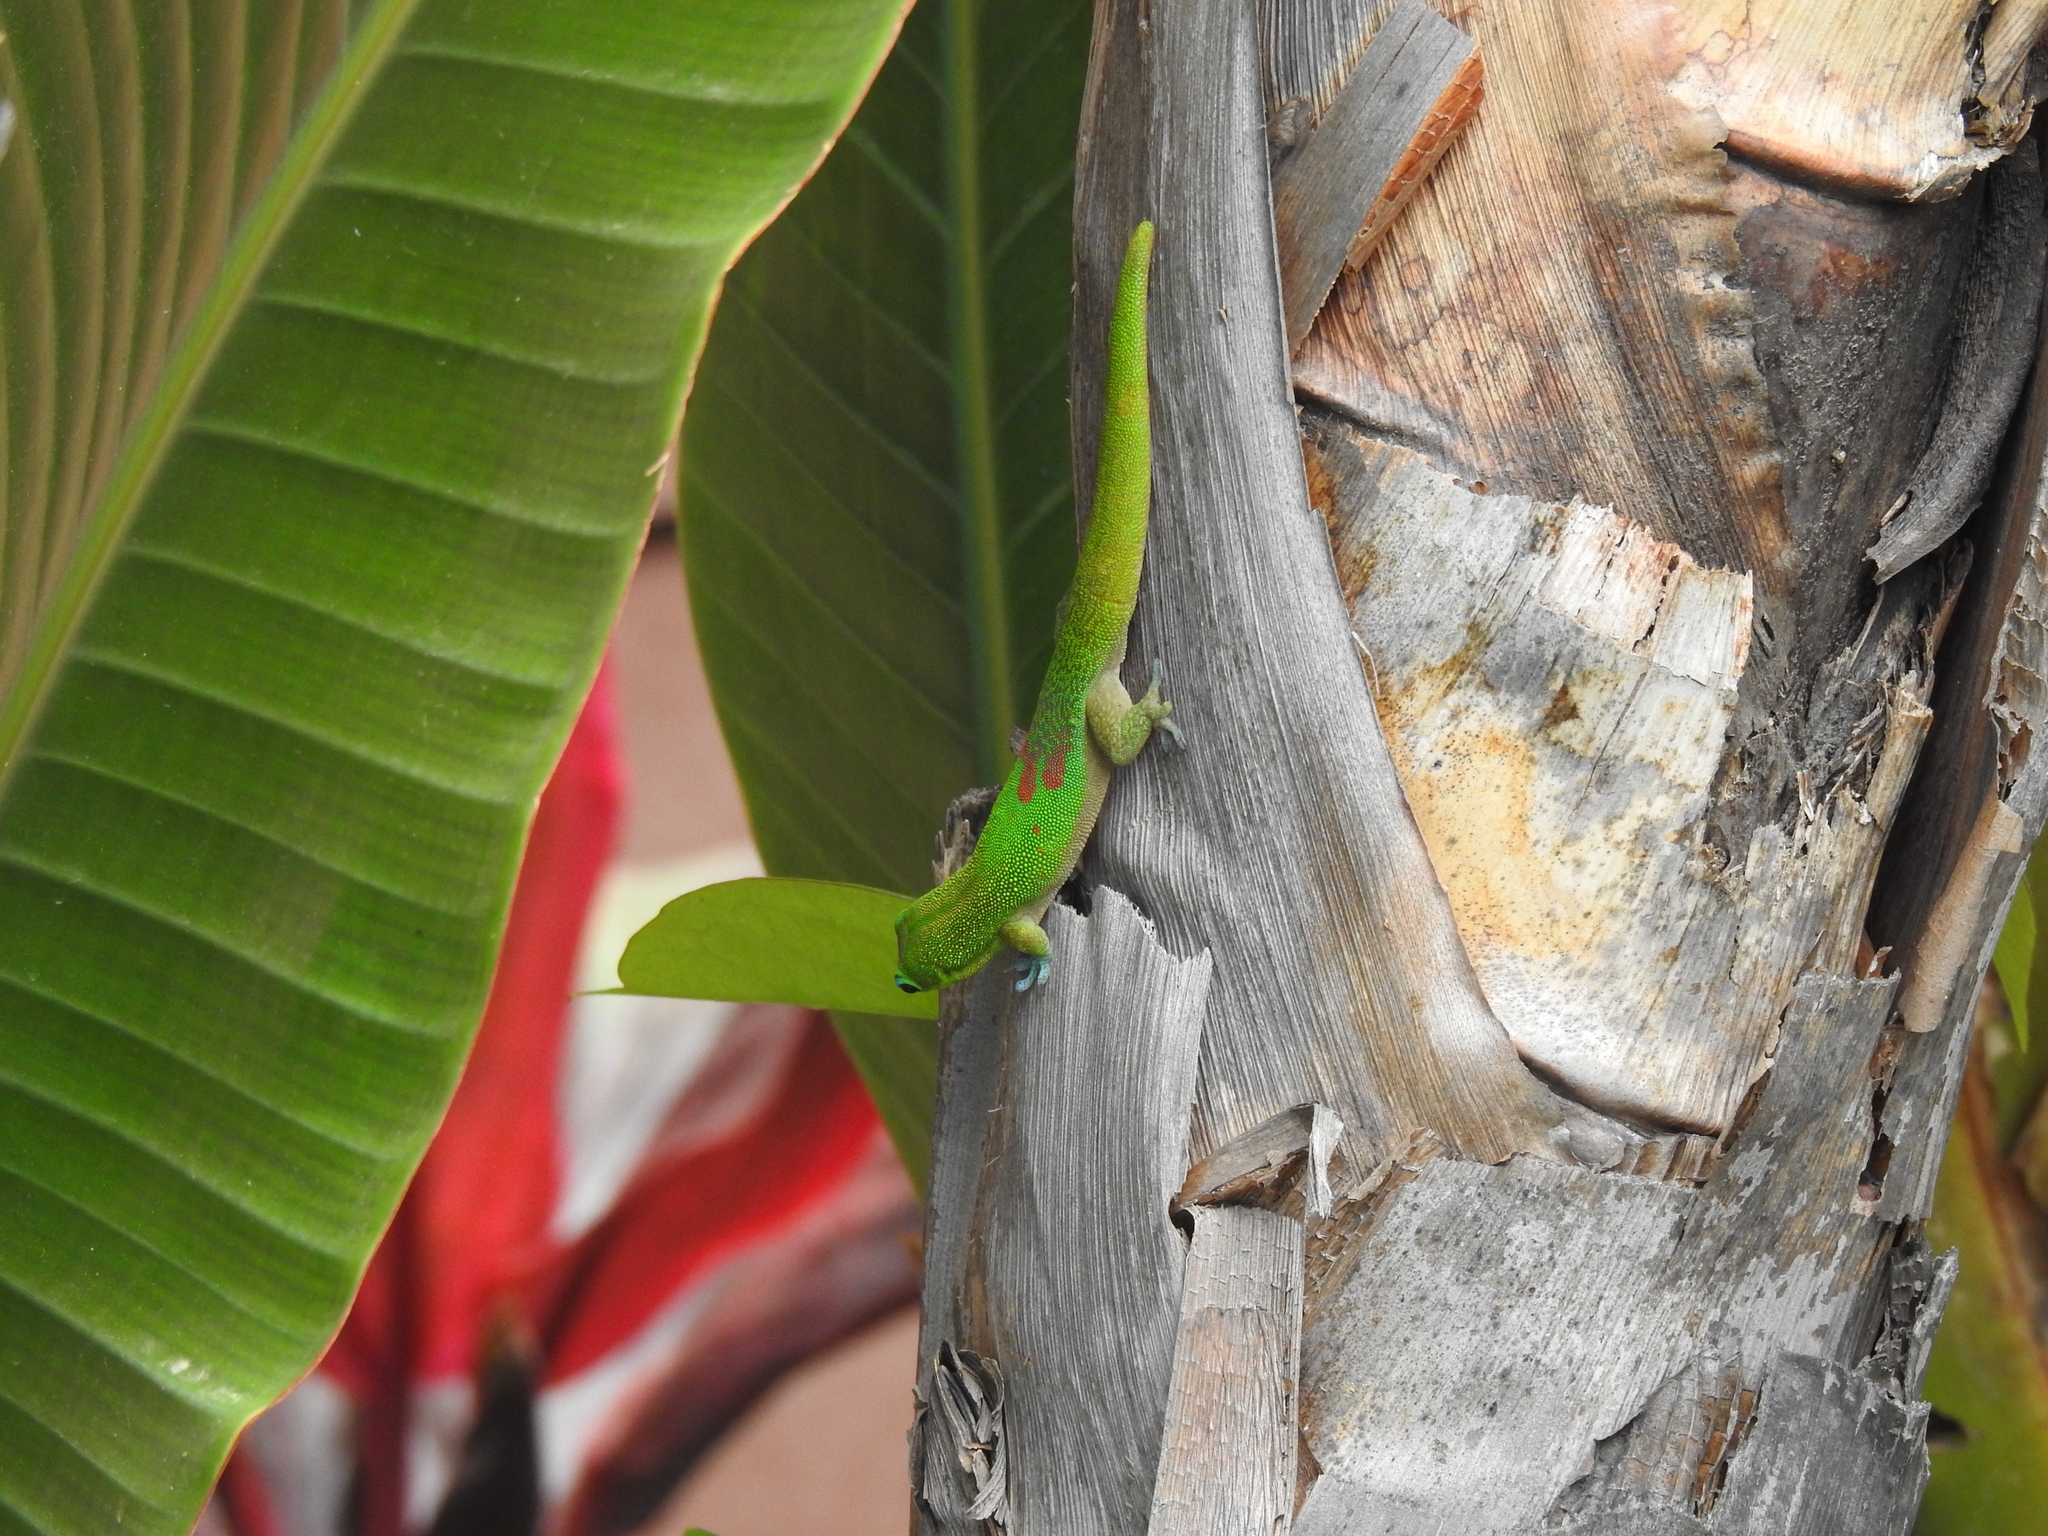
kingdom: Animalia
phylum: Chordata
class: Squamata
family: Gekkonidae
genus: Phelsuma
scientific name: Phelsuma laticauda
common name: Gold dust day gecko
